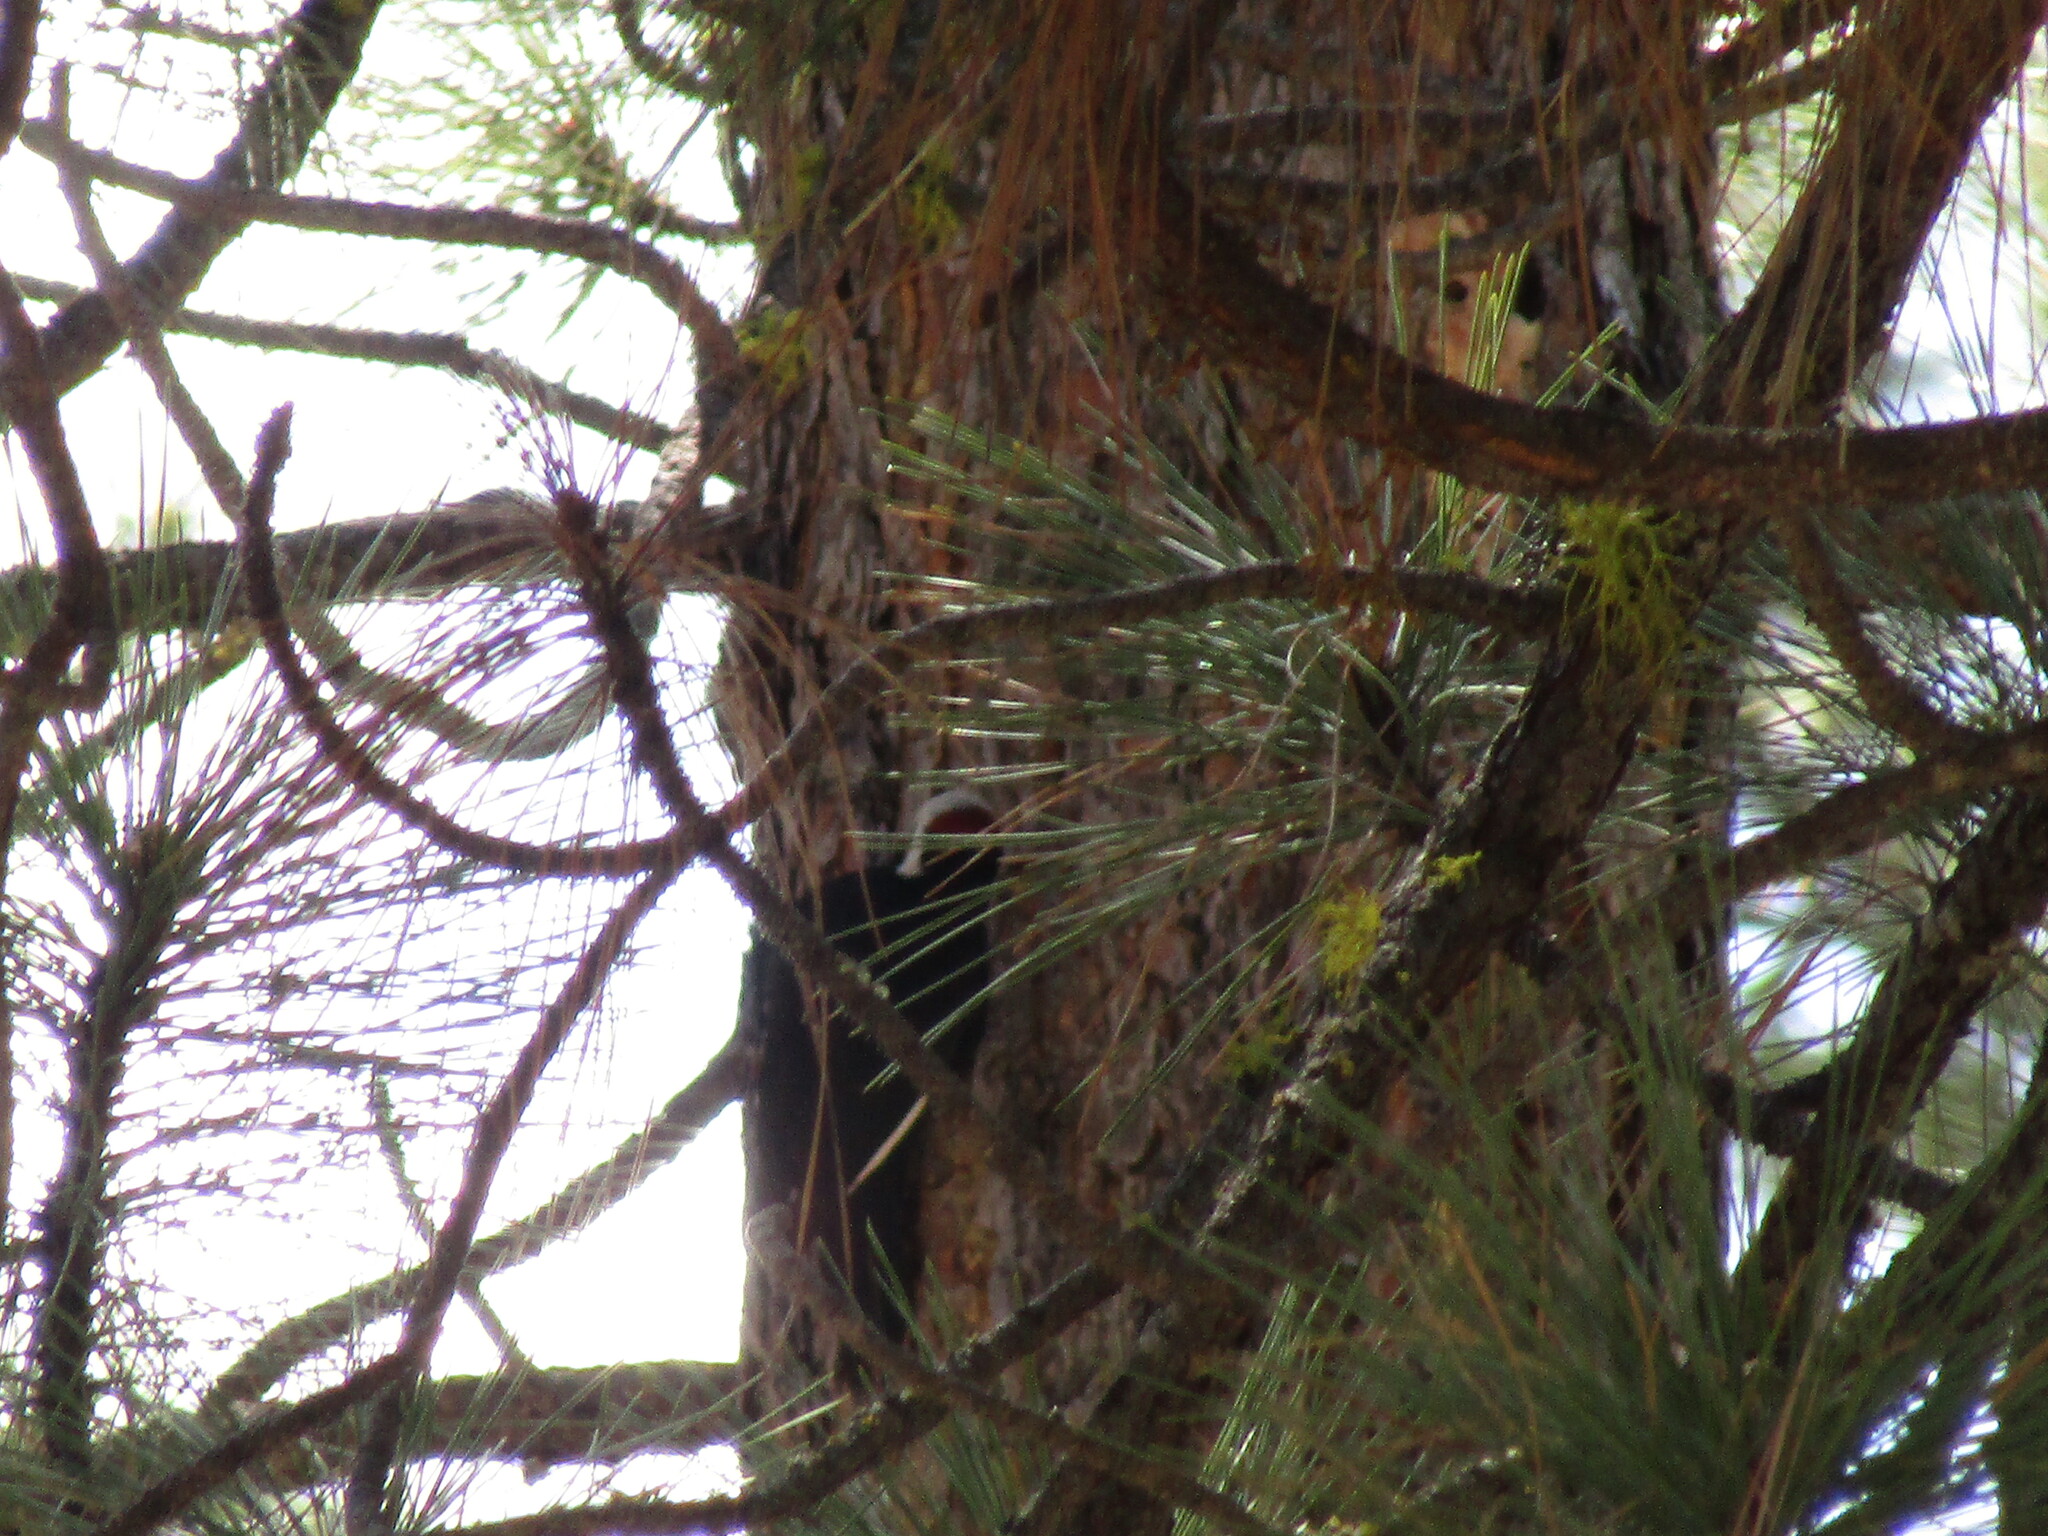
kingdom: Animalia
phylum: Chordata
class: Aves
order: Piciformes
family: Picidae
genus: Leuconotopicus
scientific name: Leuconotopicus albolarvatus
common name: White-headed woodpecker
